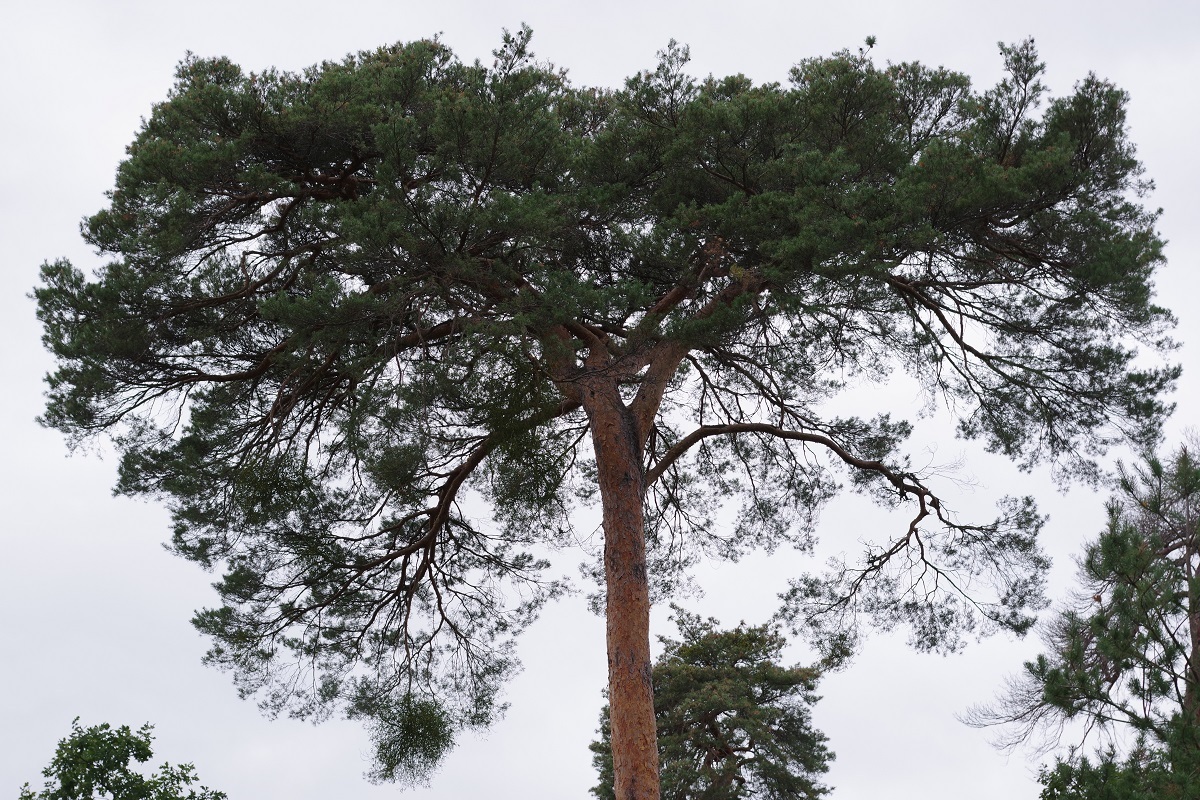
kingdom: Plantae
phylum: Tracheophyta
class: Pinopsida
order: Pinales
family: Pinaceae
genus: Pinus
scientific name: Pinus sylvestris
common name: Scots pine
